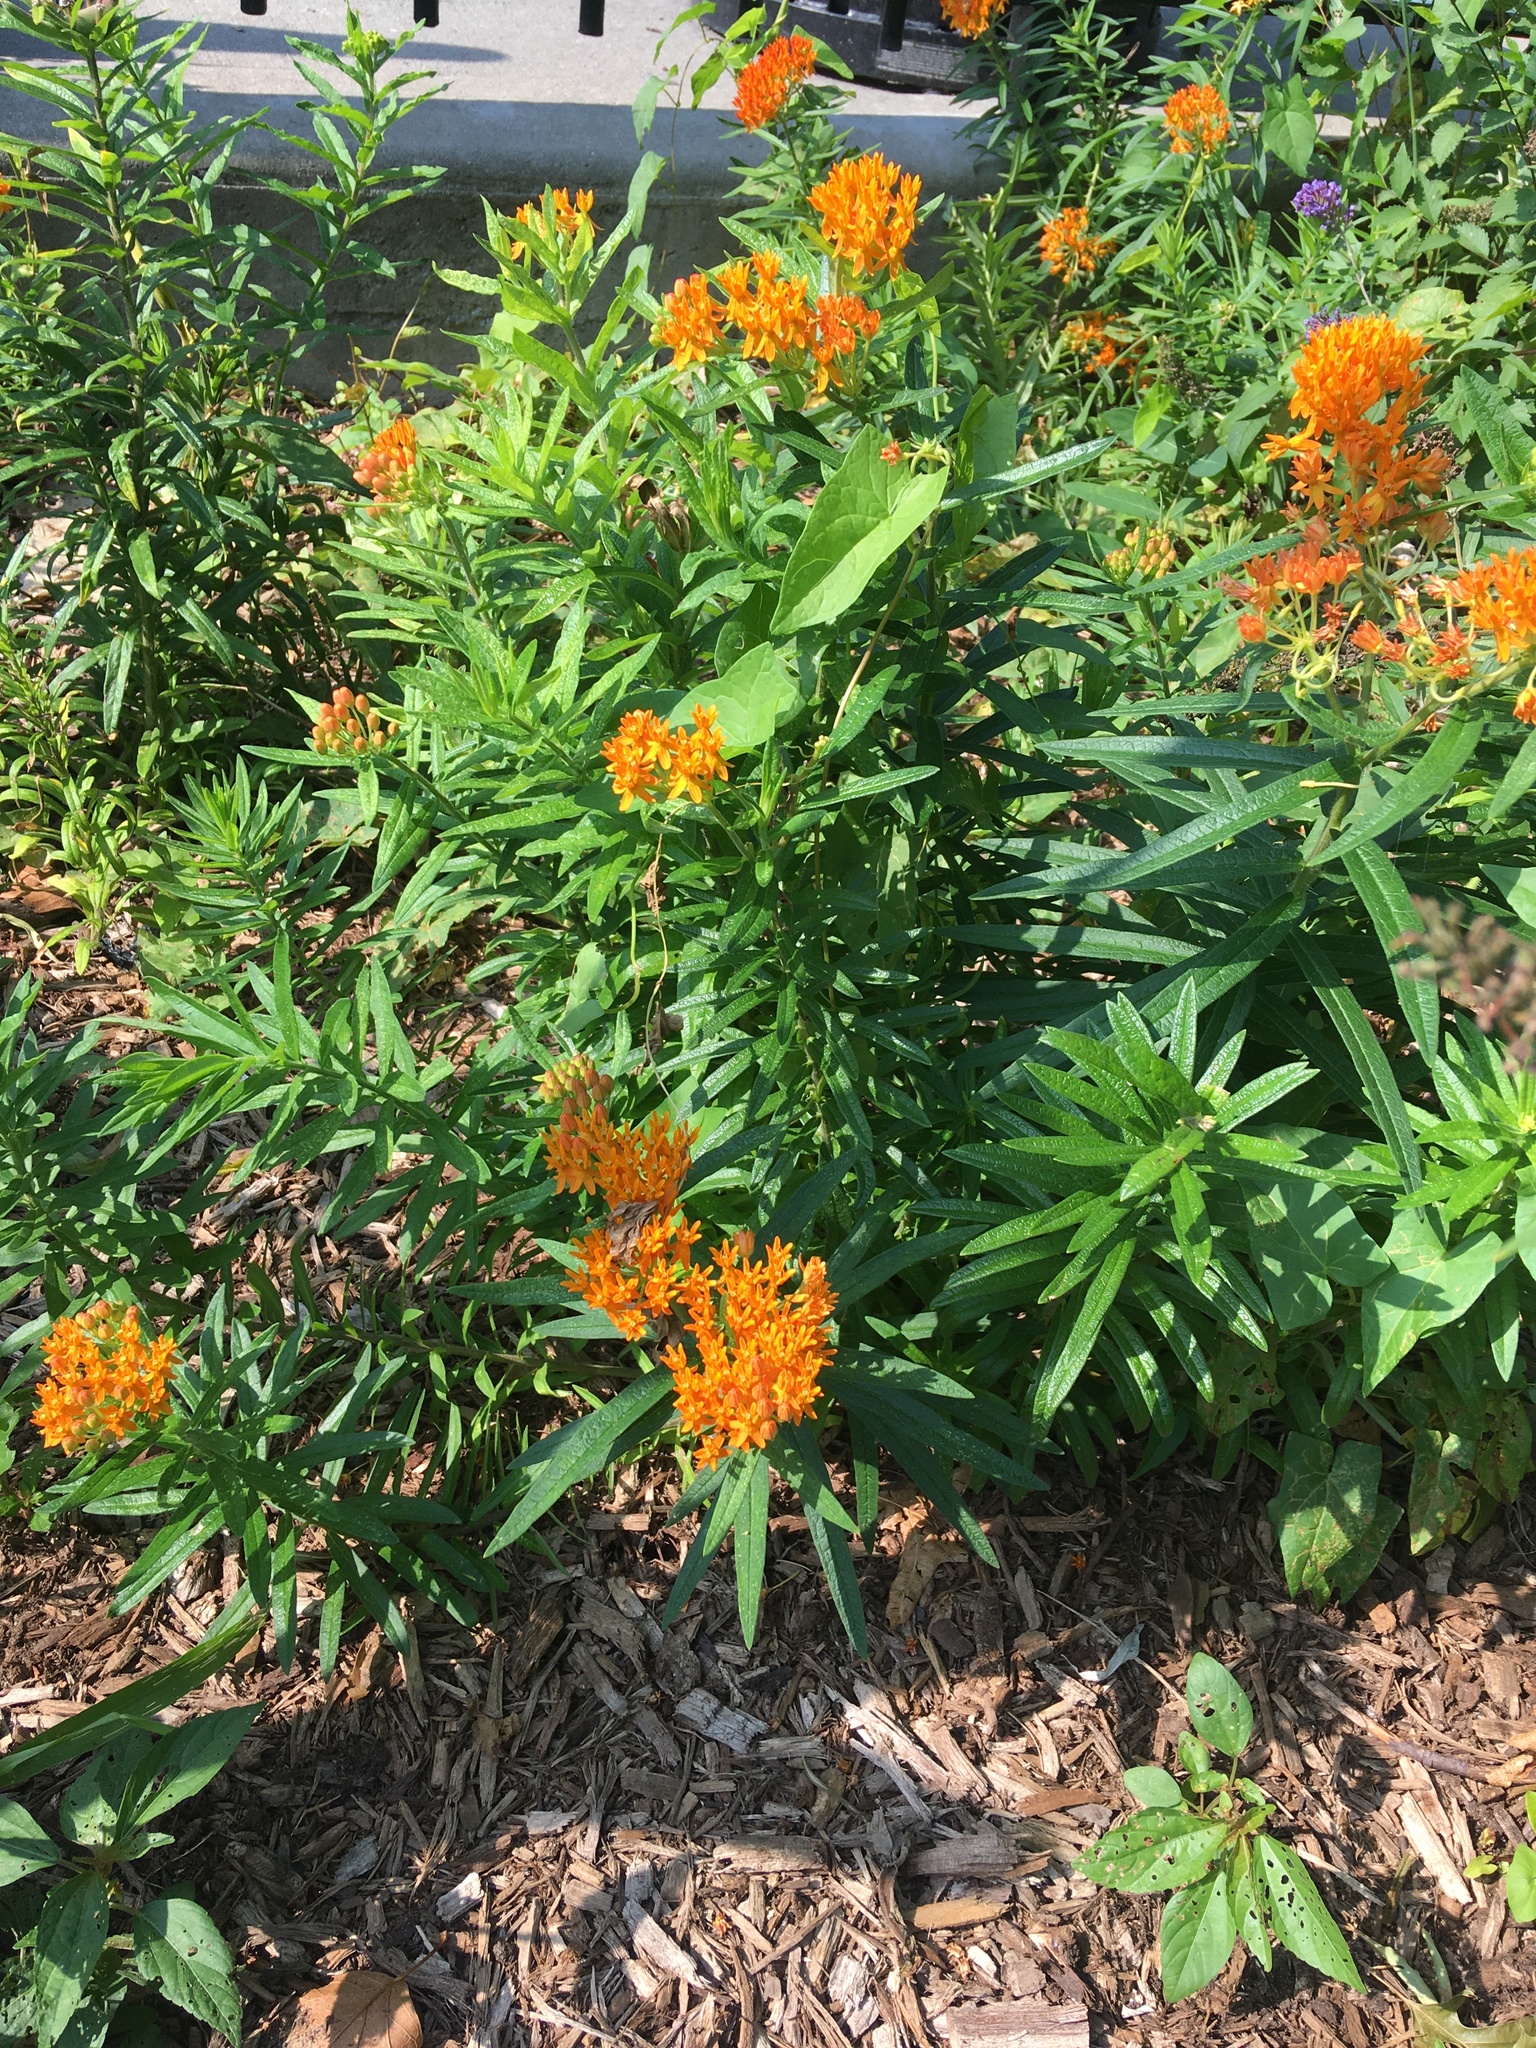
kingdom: Plantae
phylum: Tracheophyta
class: Magnoliopsida
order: Gentianales
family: Apocynaceae
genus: Asclepias
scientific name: Asclepias tuberosa
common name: Butterfly milkweed
